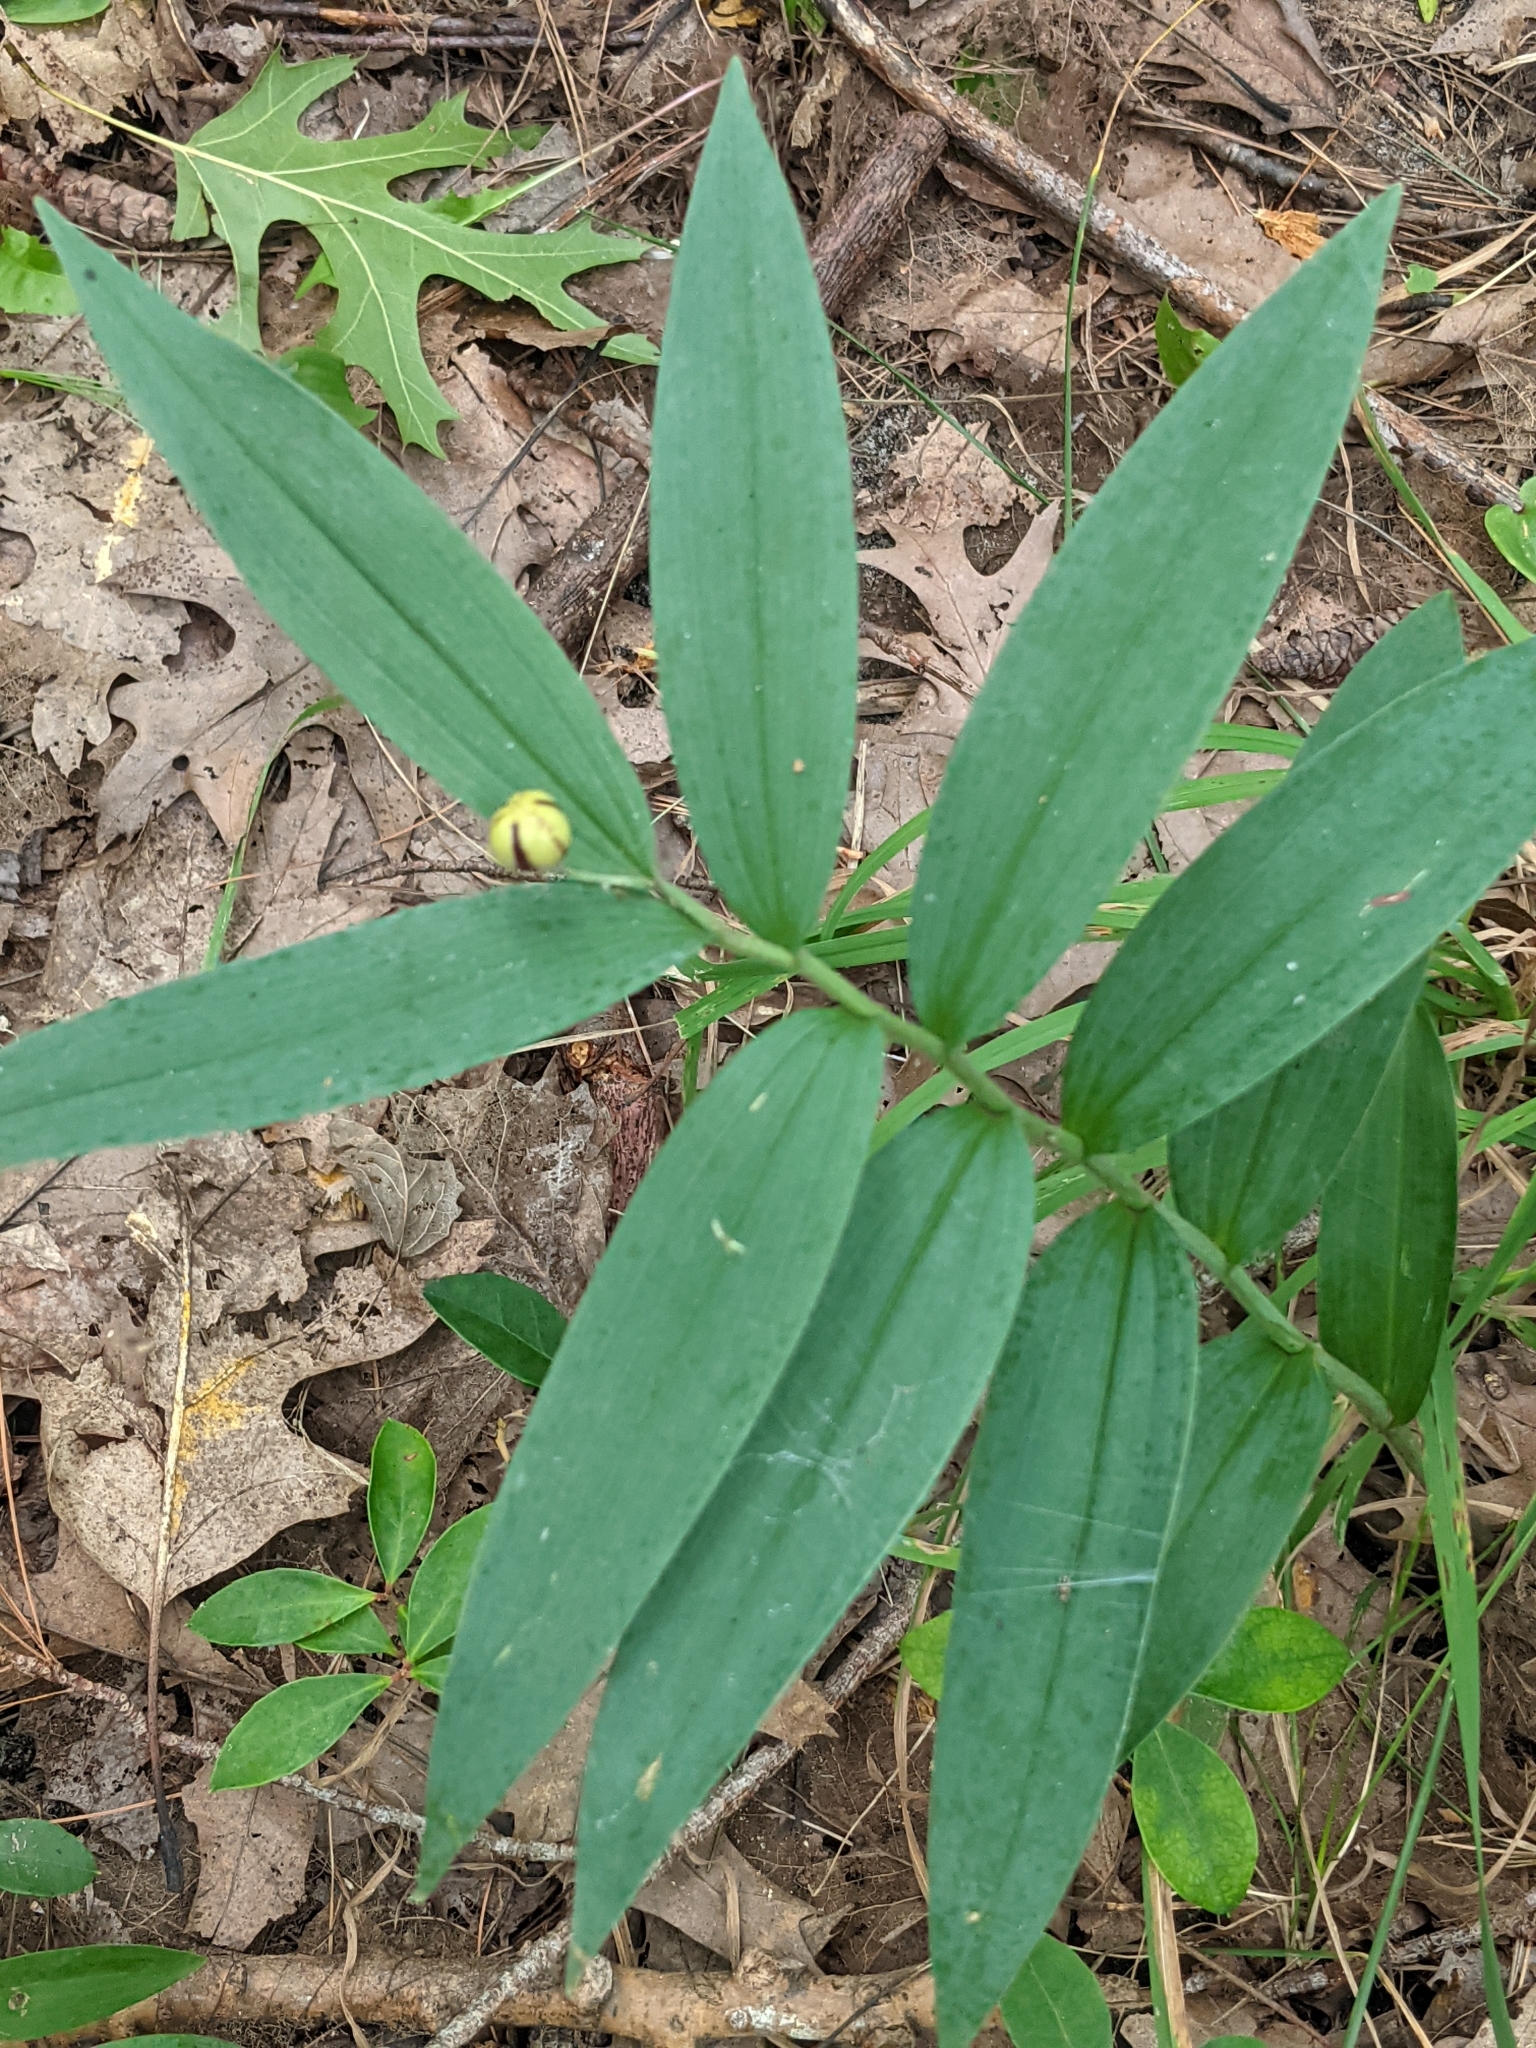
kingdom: Plantae
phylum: Tracheophyta
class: Liliopsida
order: Asparagales
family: Asparagaceae
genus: Maianthemum
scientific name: Maianthemum stellatum
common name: Little false solomon's seal
